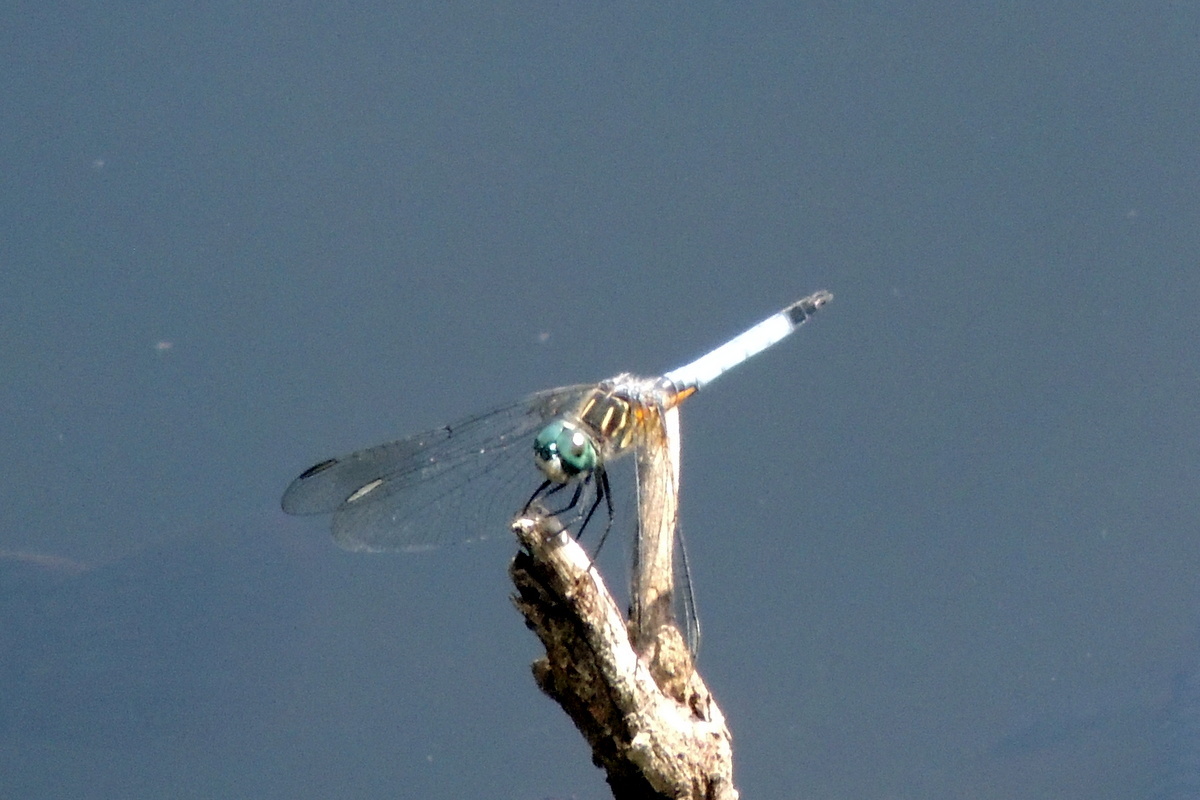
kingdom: Animalia
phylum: Arthropoda
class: Insecta
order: Odonata
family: Libellulidae
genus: Pachydiplax
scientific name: Pachydiplax longipennis
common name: Blue dasher
